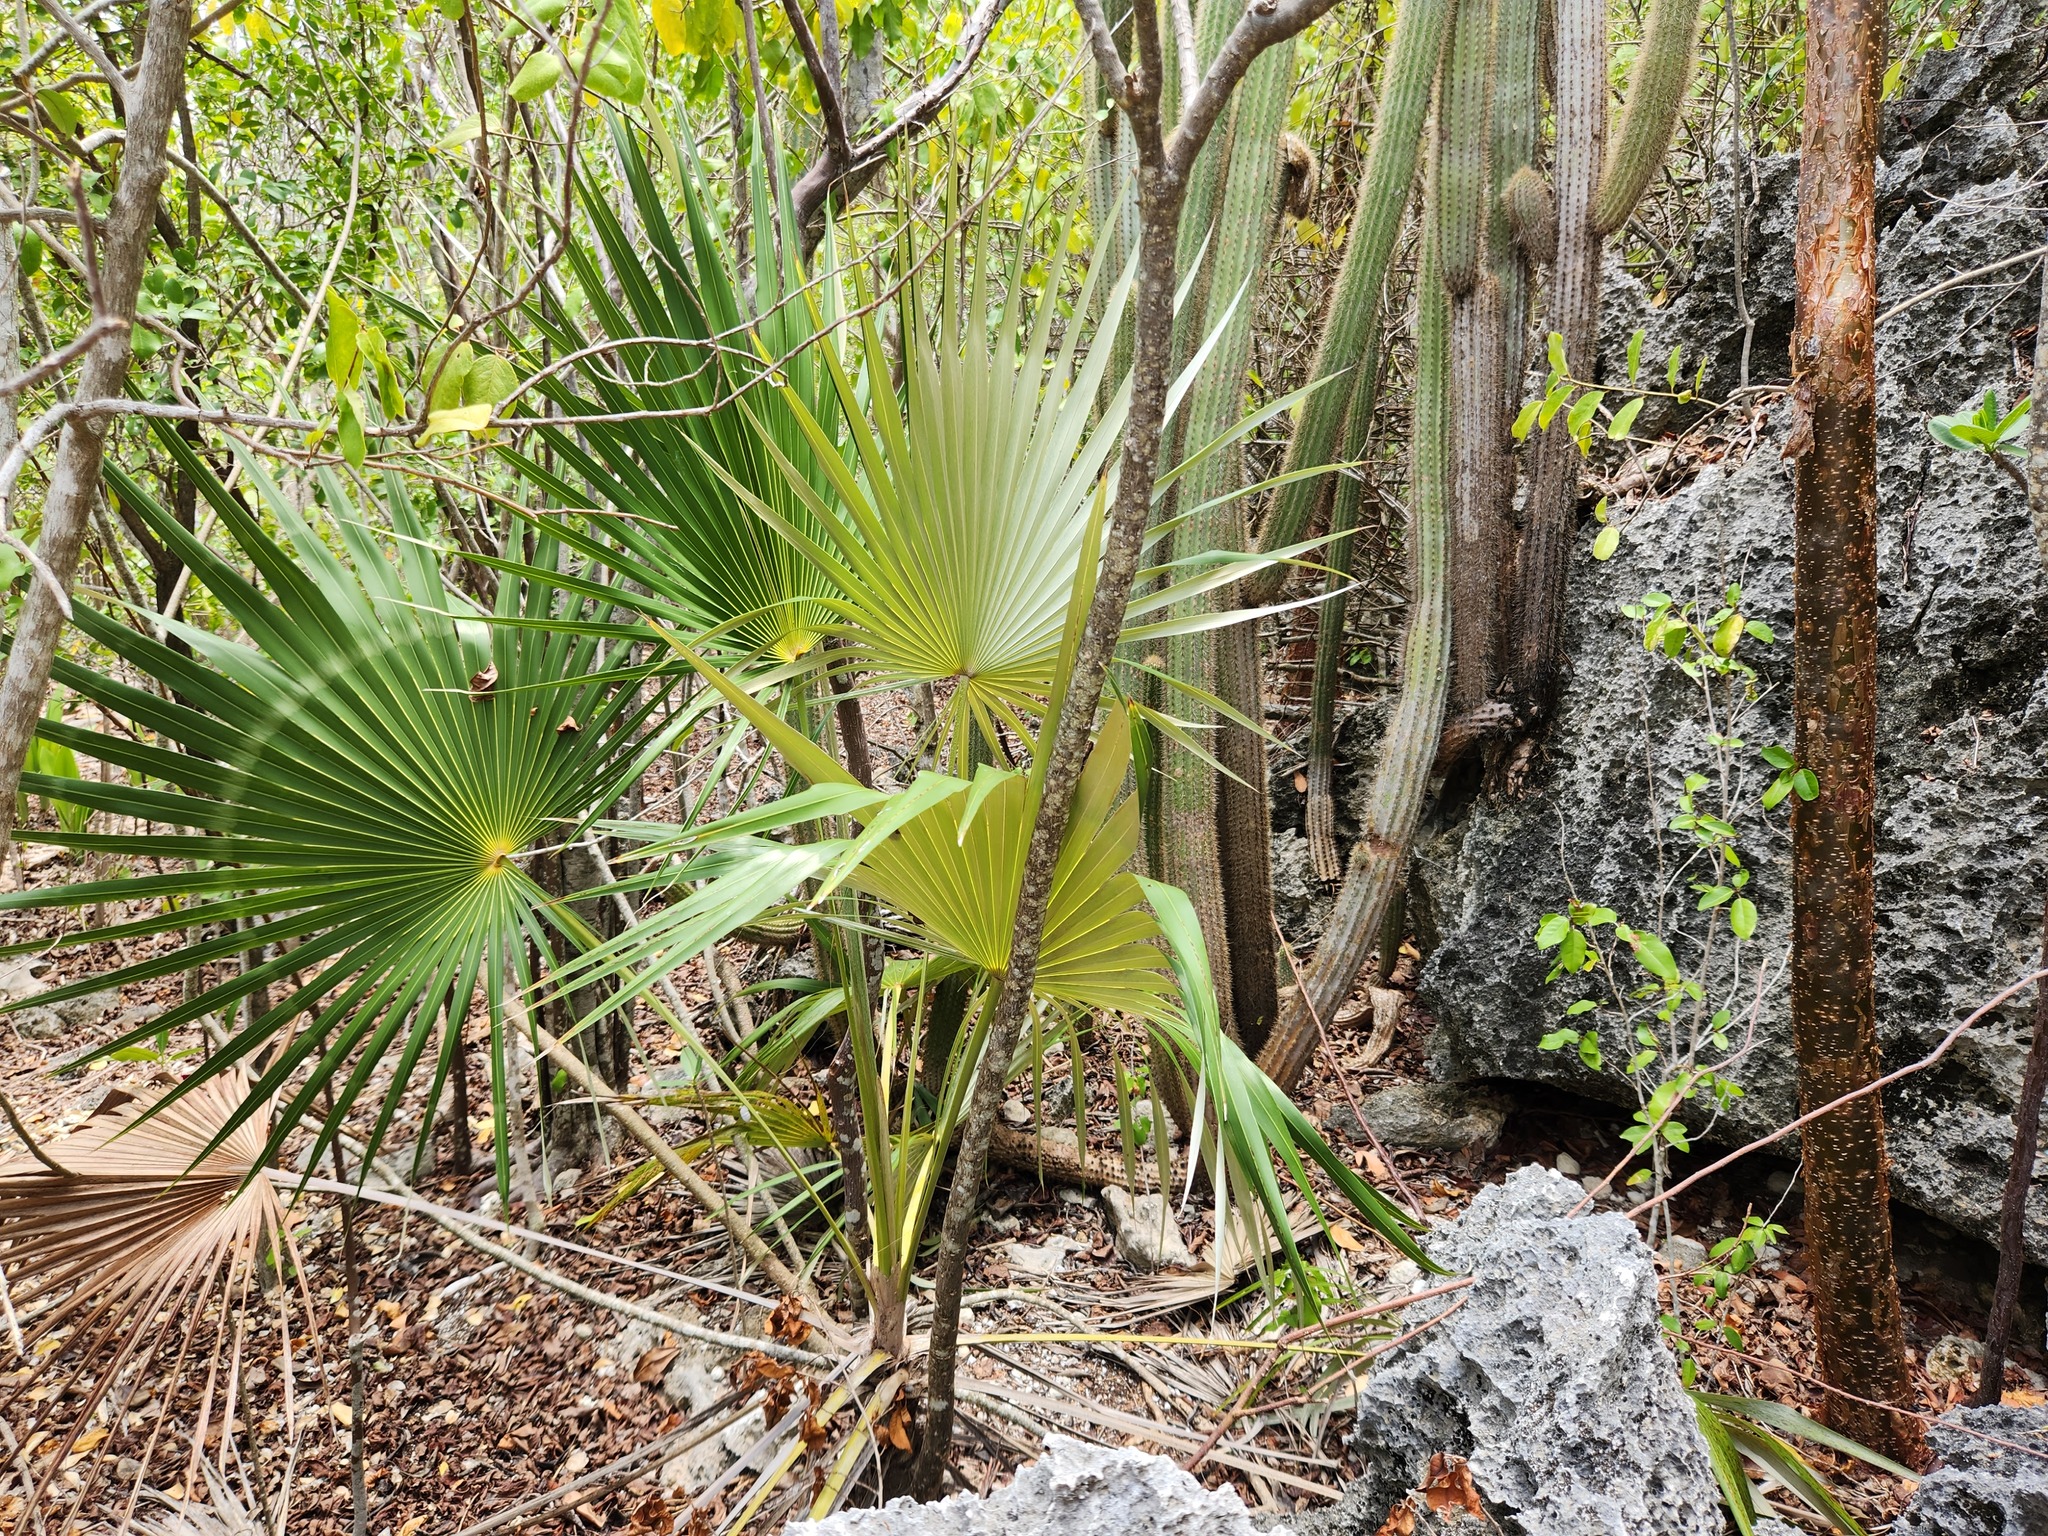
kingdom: Plantae
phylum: Tracheophyta
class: Liliopsida
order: Arecales
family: Arecaceae
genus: Coccothrinax
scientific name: Coccothrinax proctorii
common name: Silver palm
